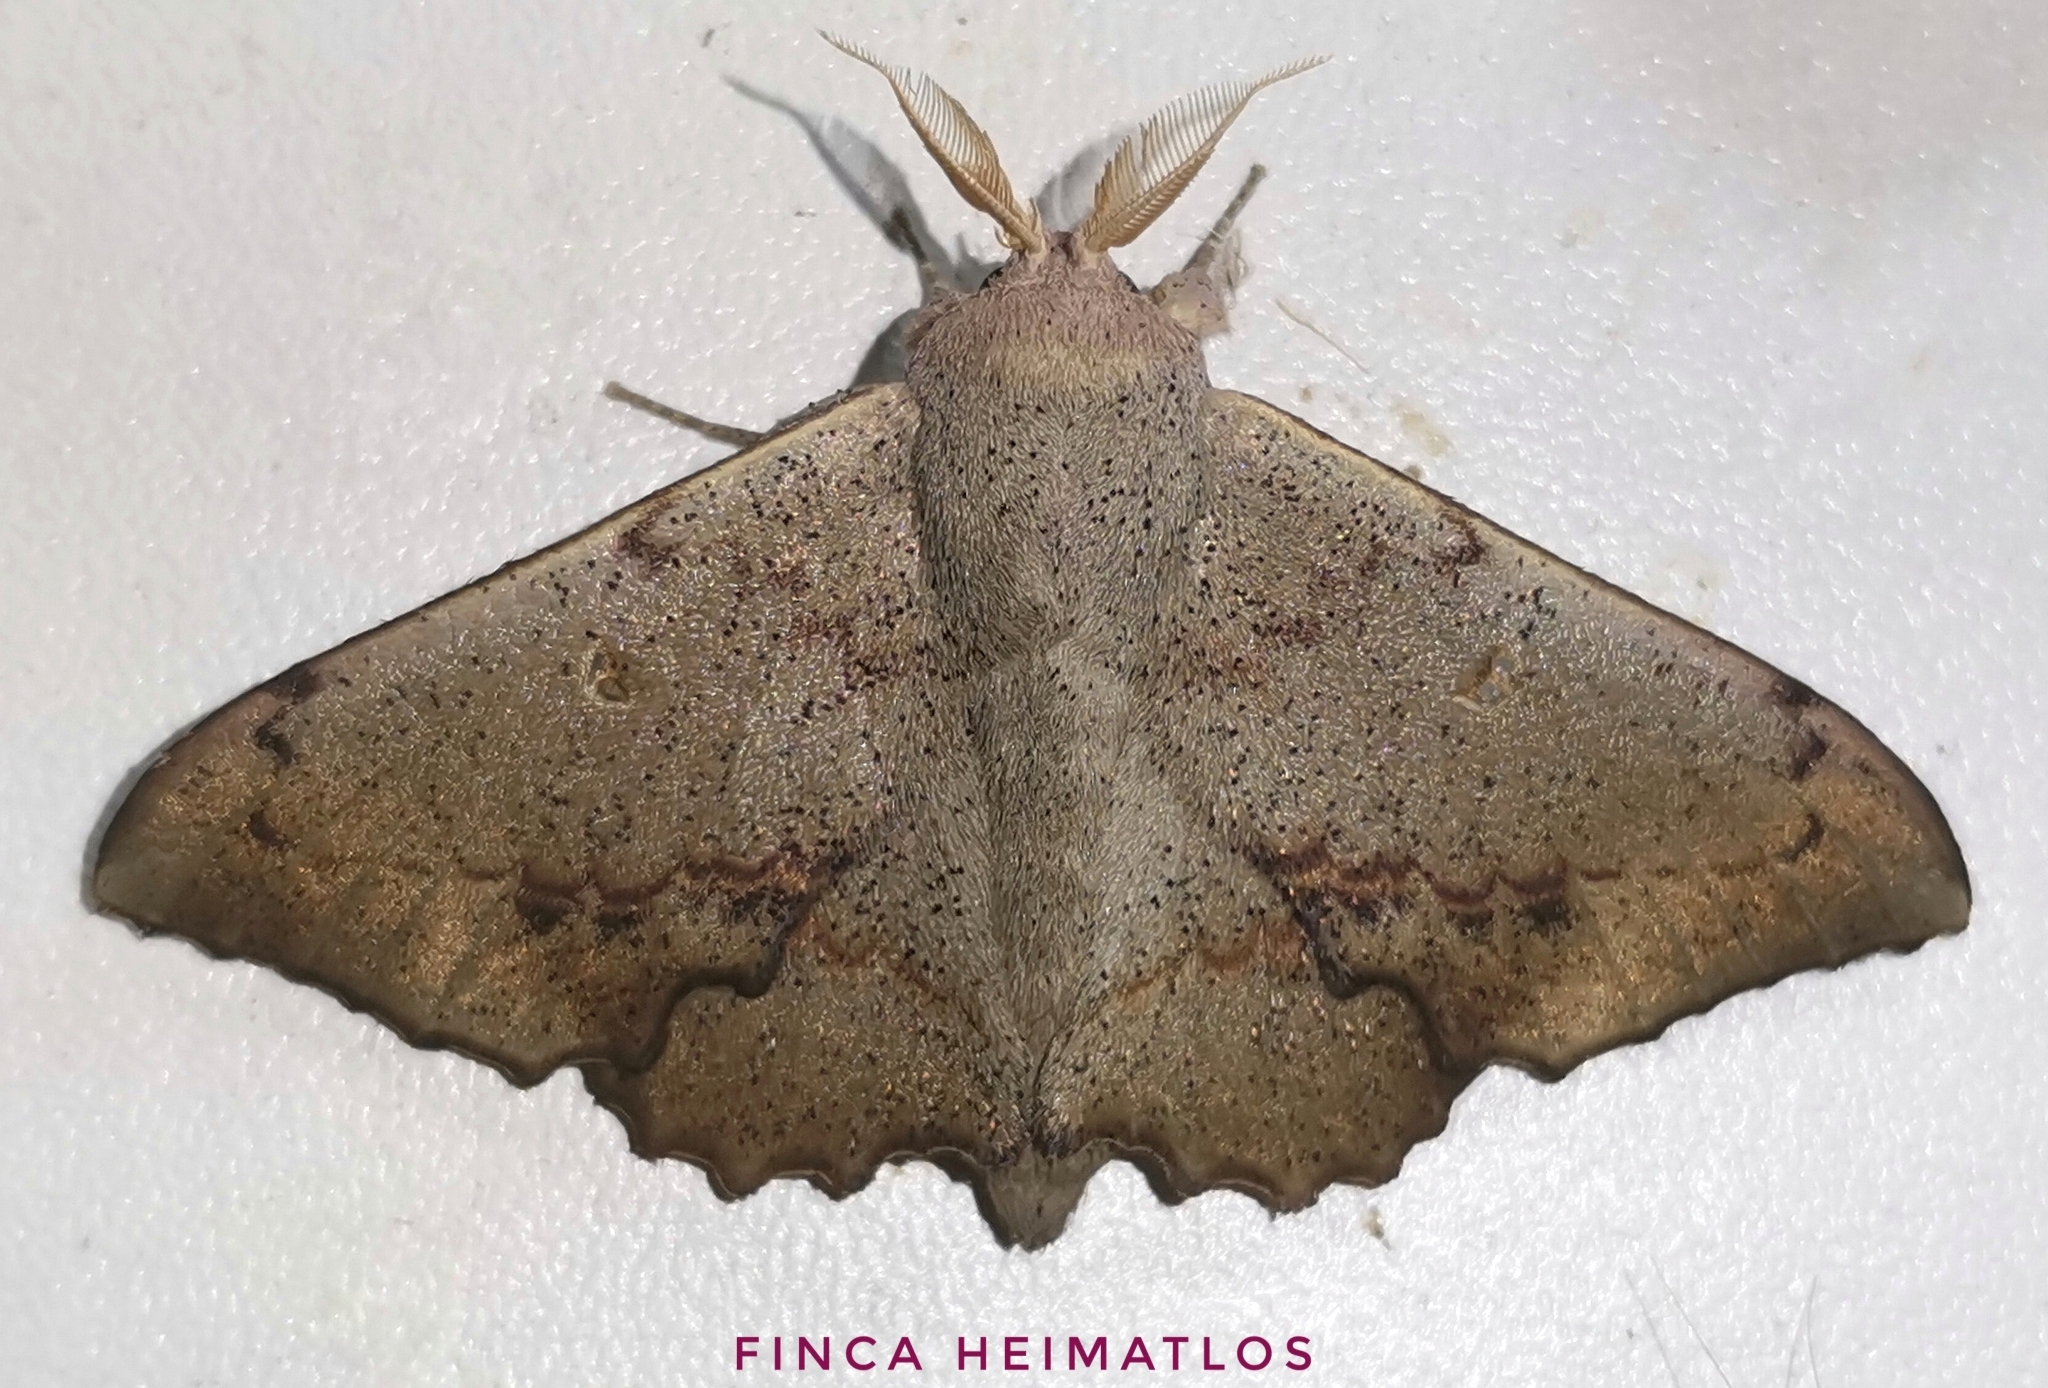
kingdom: Animalia
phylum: Arthropoda
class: Insecta
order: Lepidoptera
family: Mimallonidae
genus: Mimallo
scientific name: Mimallo brosica
